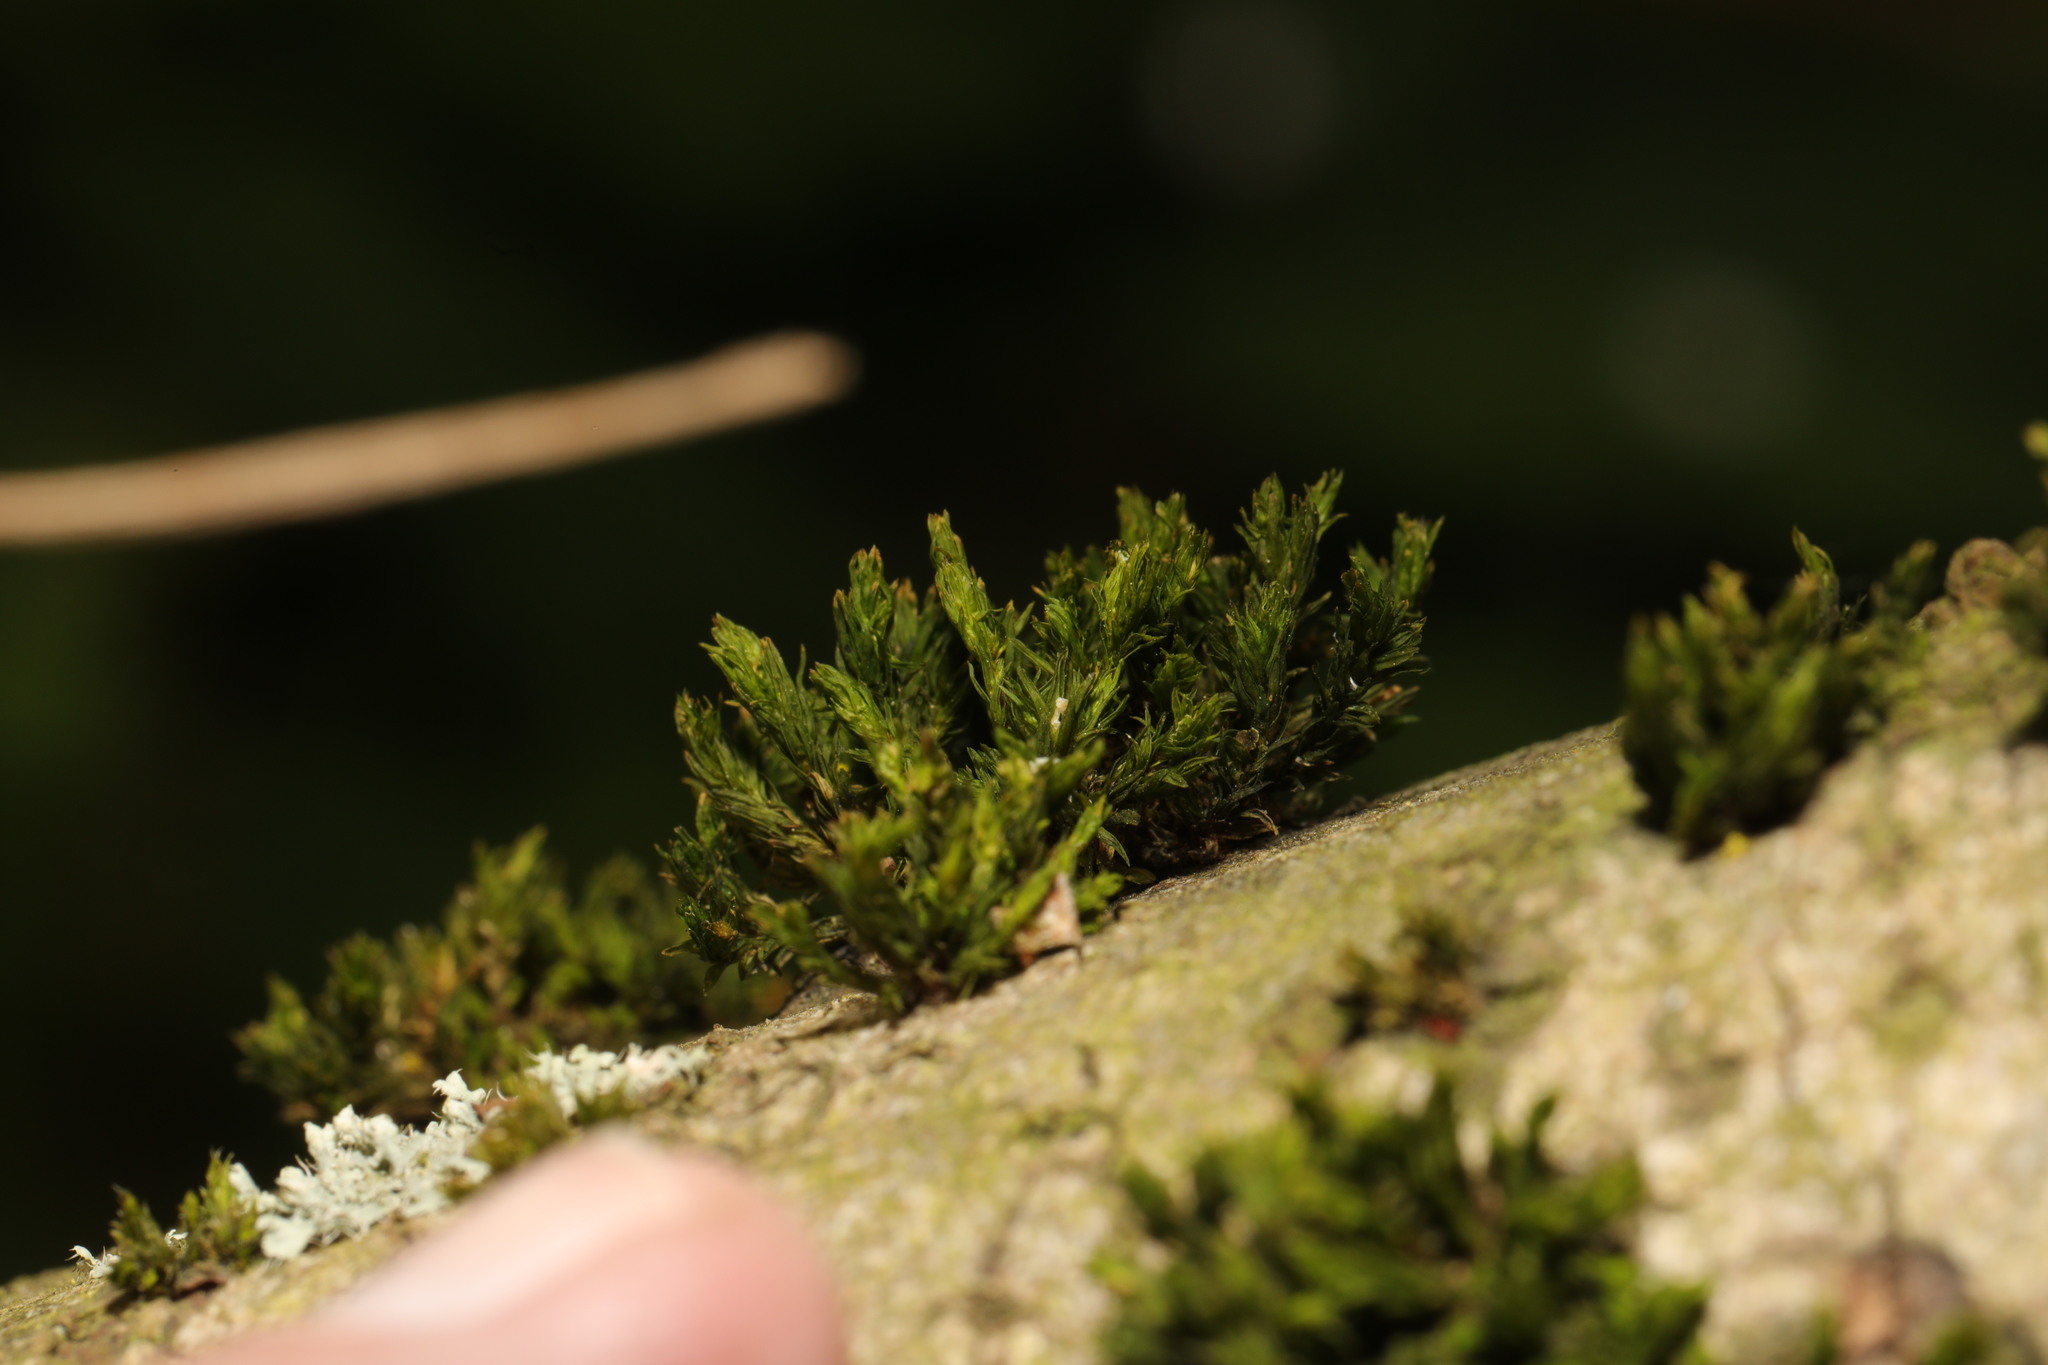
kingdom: Plantae
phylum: Bryophyta
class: Bryopsida
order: Orthotrichales
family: Orthotrichaceae
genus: Lewinskya
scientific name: Lewinskya affinis
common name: Wood bristle-moss
